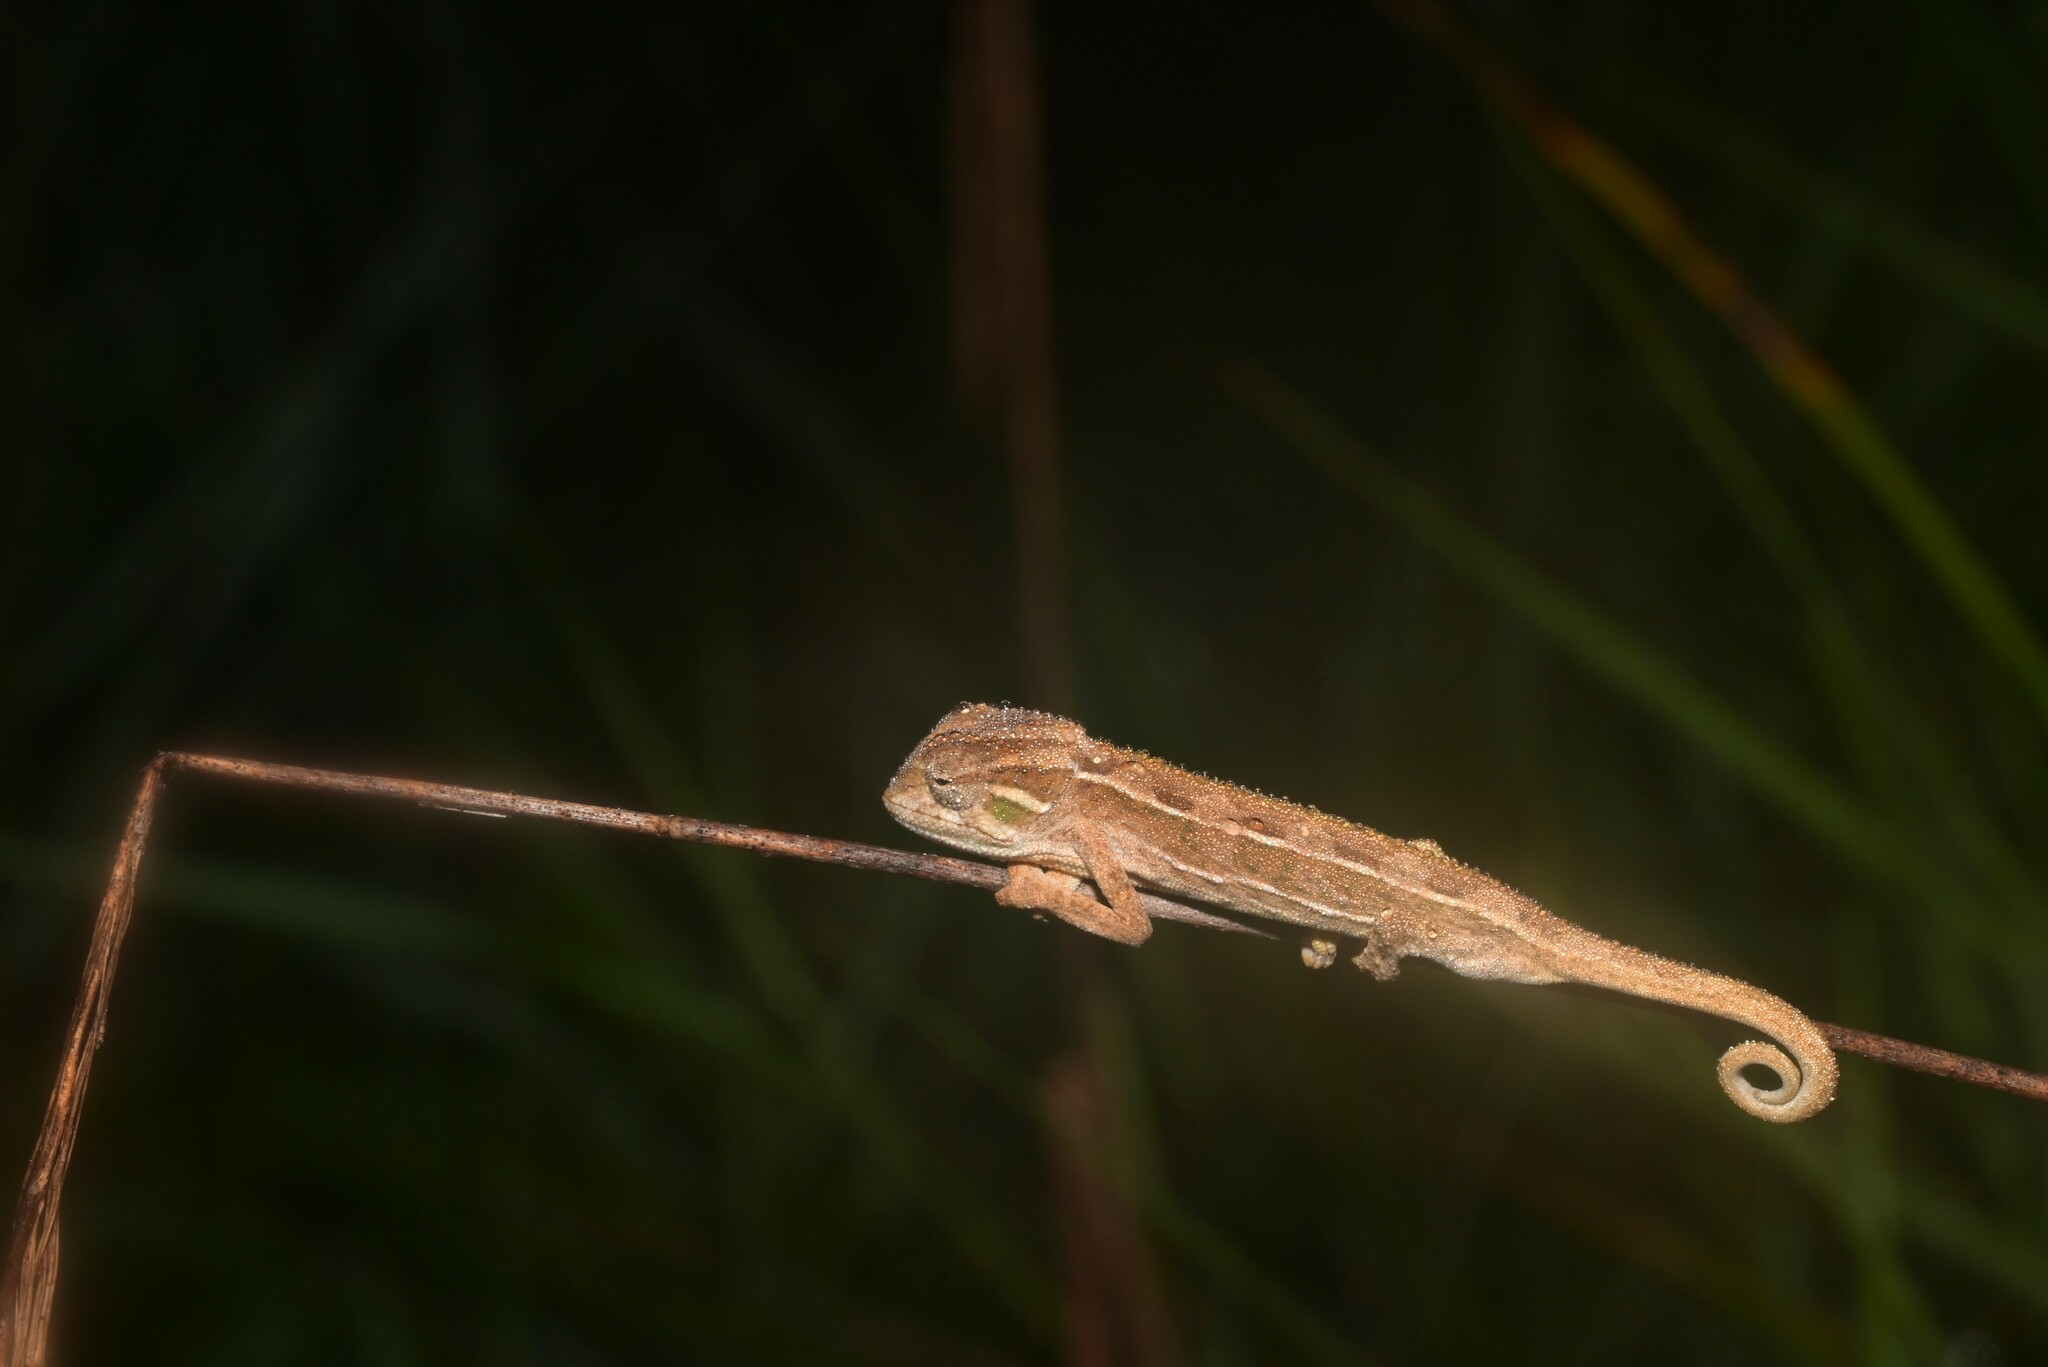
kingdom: Animalia
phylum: Chordata
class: Squamata
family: Chamaeleonidae
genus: Trioceros
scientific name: Trioceros goetzei
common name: Ilolo chameleon
